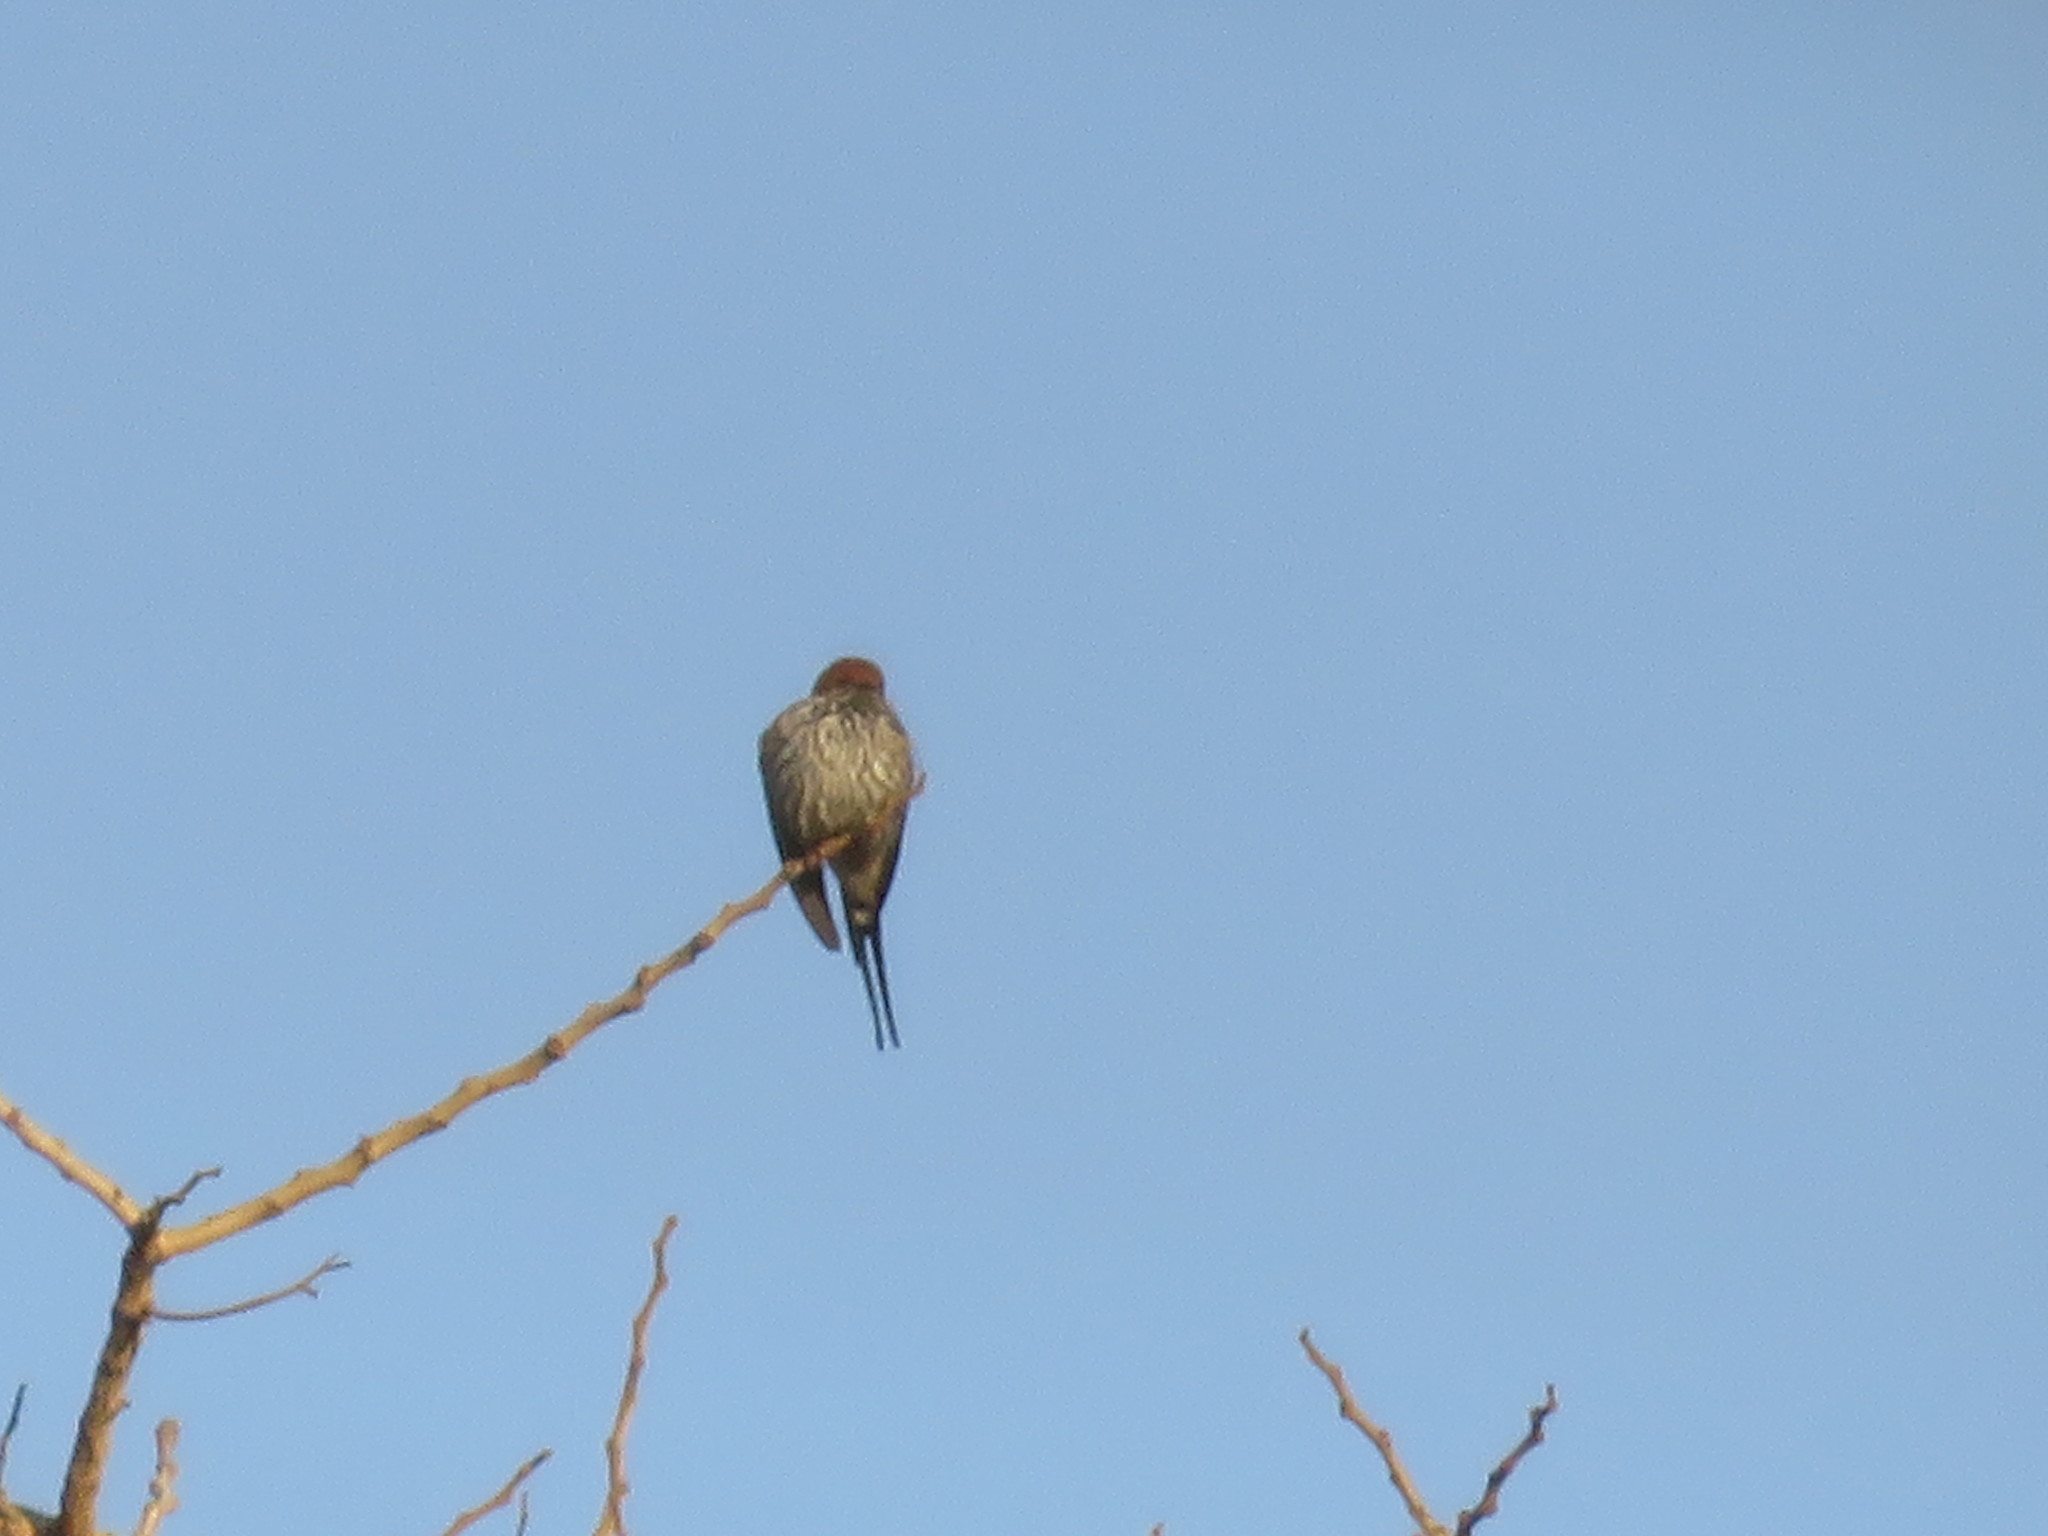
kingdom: Animalia
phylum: Chordata
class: Aves
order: Passeriformes
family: Hirundinidae
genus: Cecropis
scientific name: Cecropis abyssinica
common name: Lesser striped-swallow
